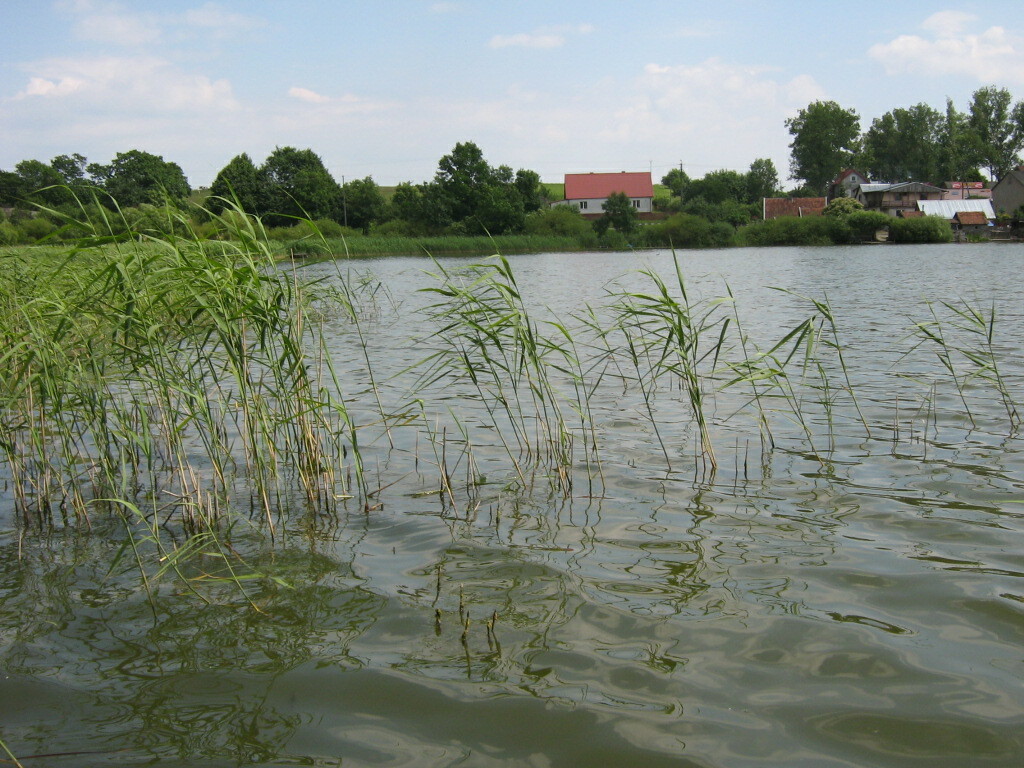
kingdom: Plantae
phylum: Tracheophyta
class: Liliopsida
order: Poales
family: Poaceae
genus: Phragmites
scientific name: Phragmites australis
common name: Common reed
